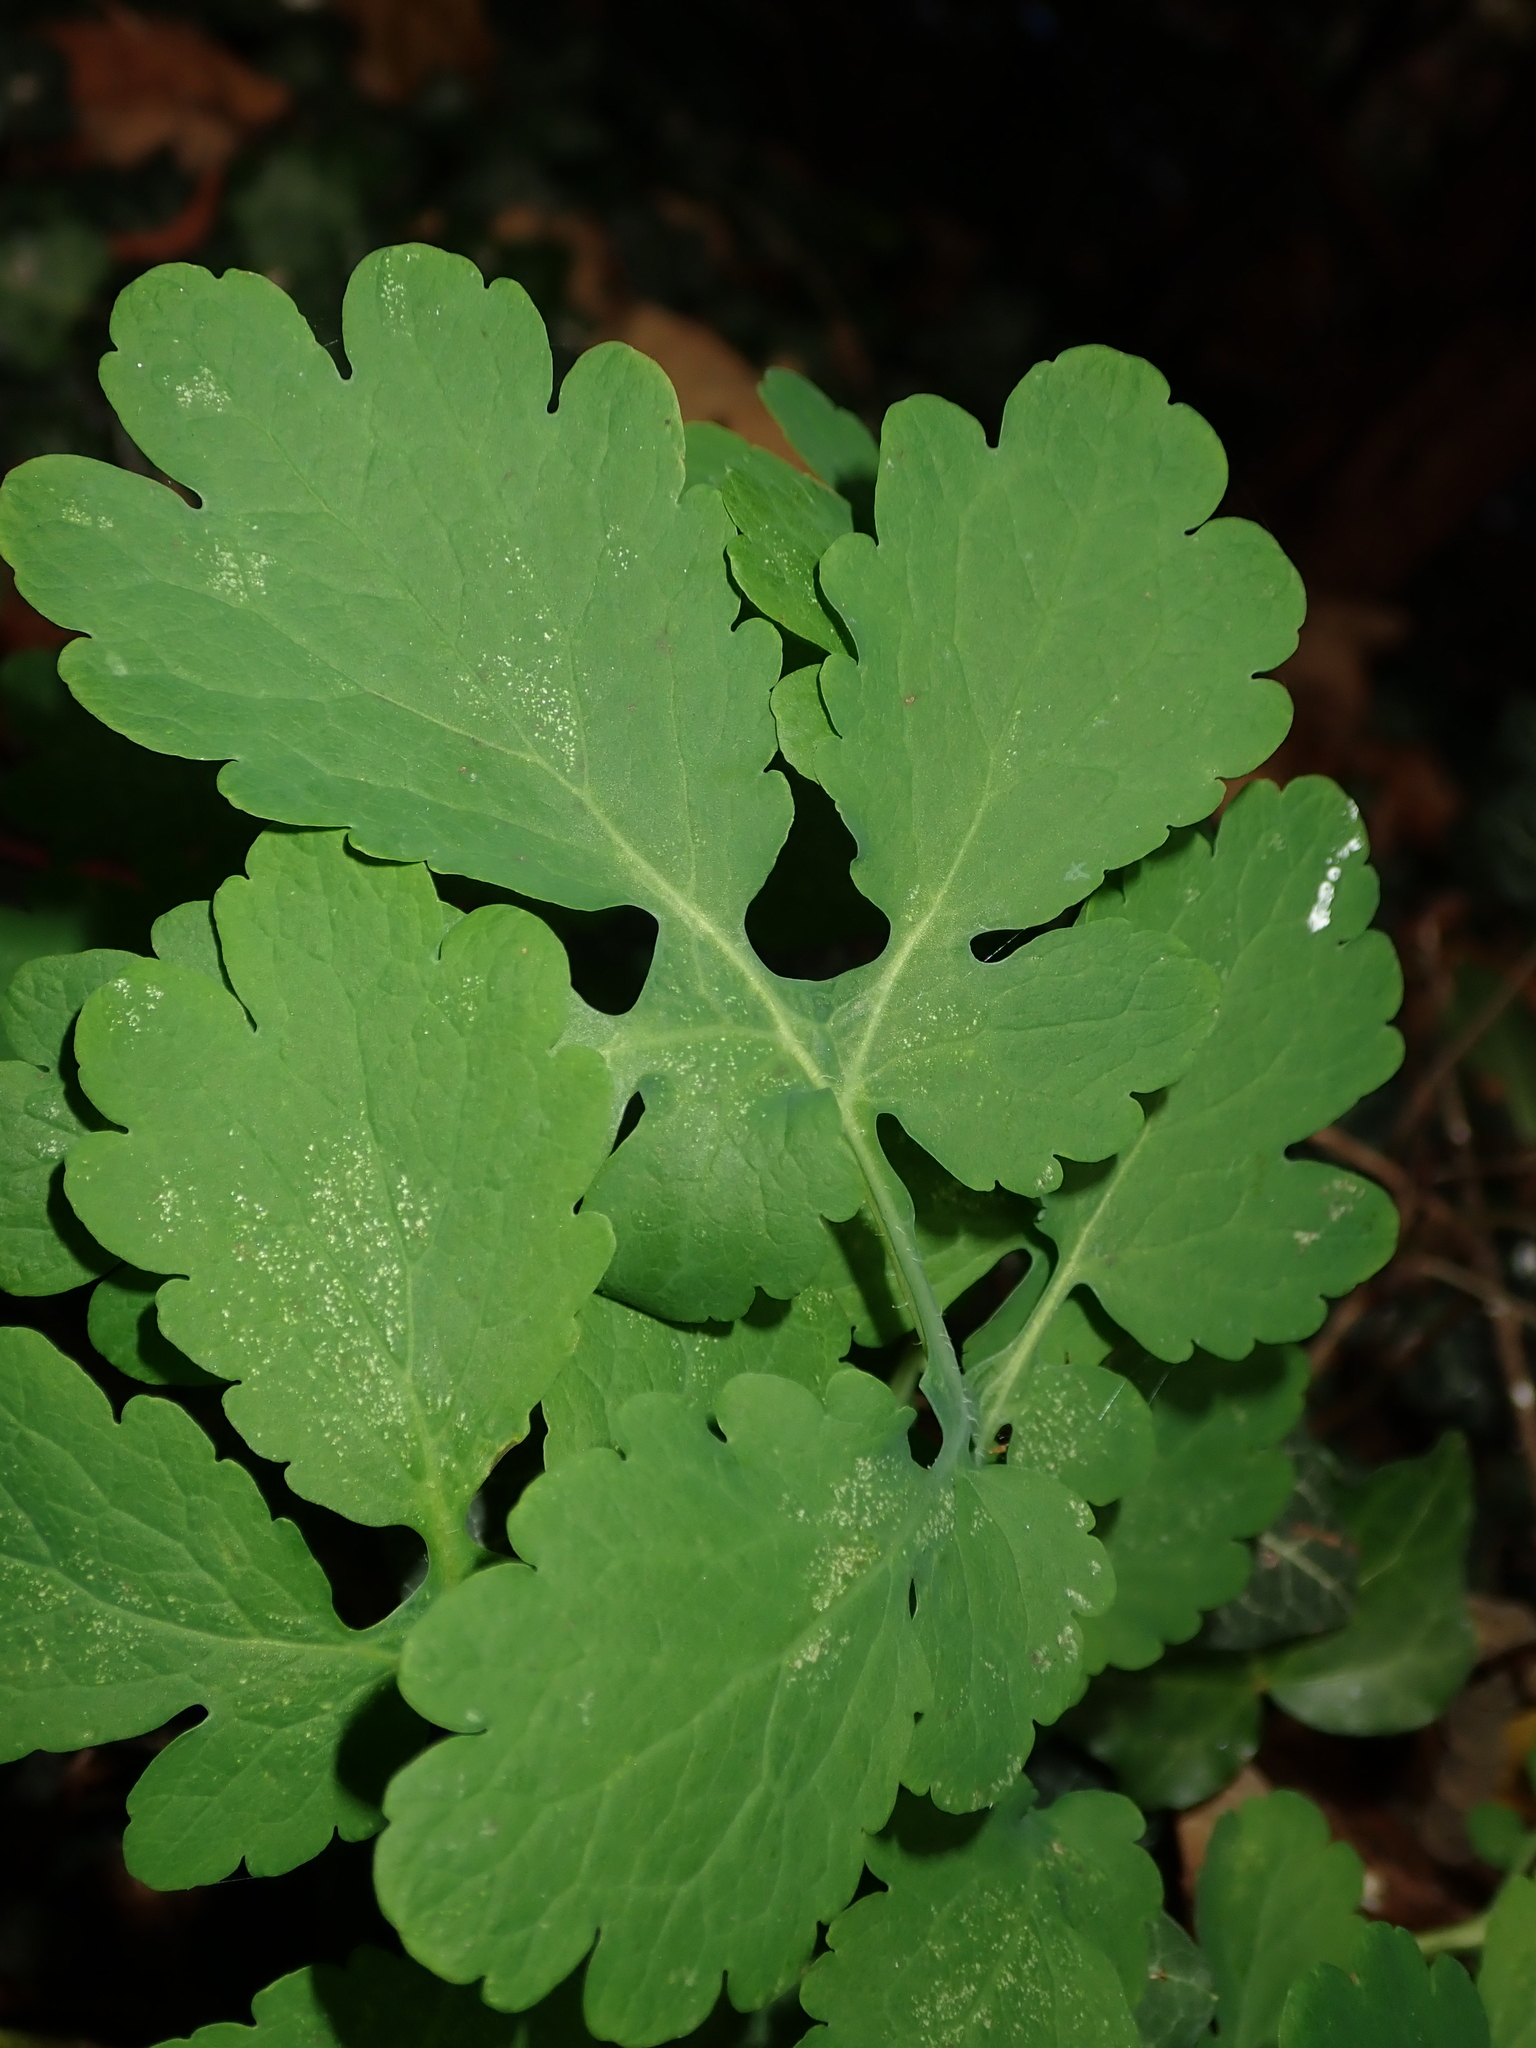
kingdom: Plantae
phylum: Tracheophyta
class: Magnoliopsida
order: Ranunculales
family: Papaveraceae
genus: Chelidonium
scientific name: Chelidonium majus
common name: Greater celandine
